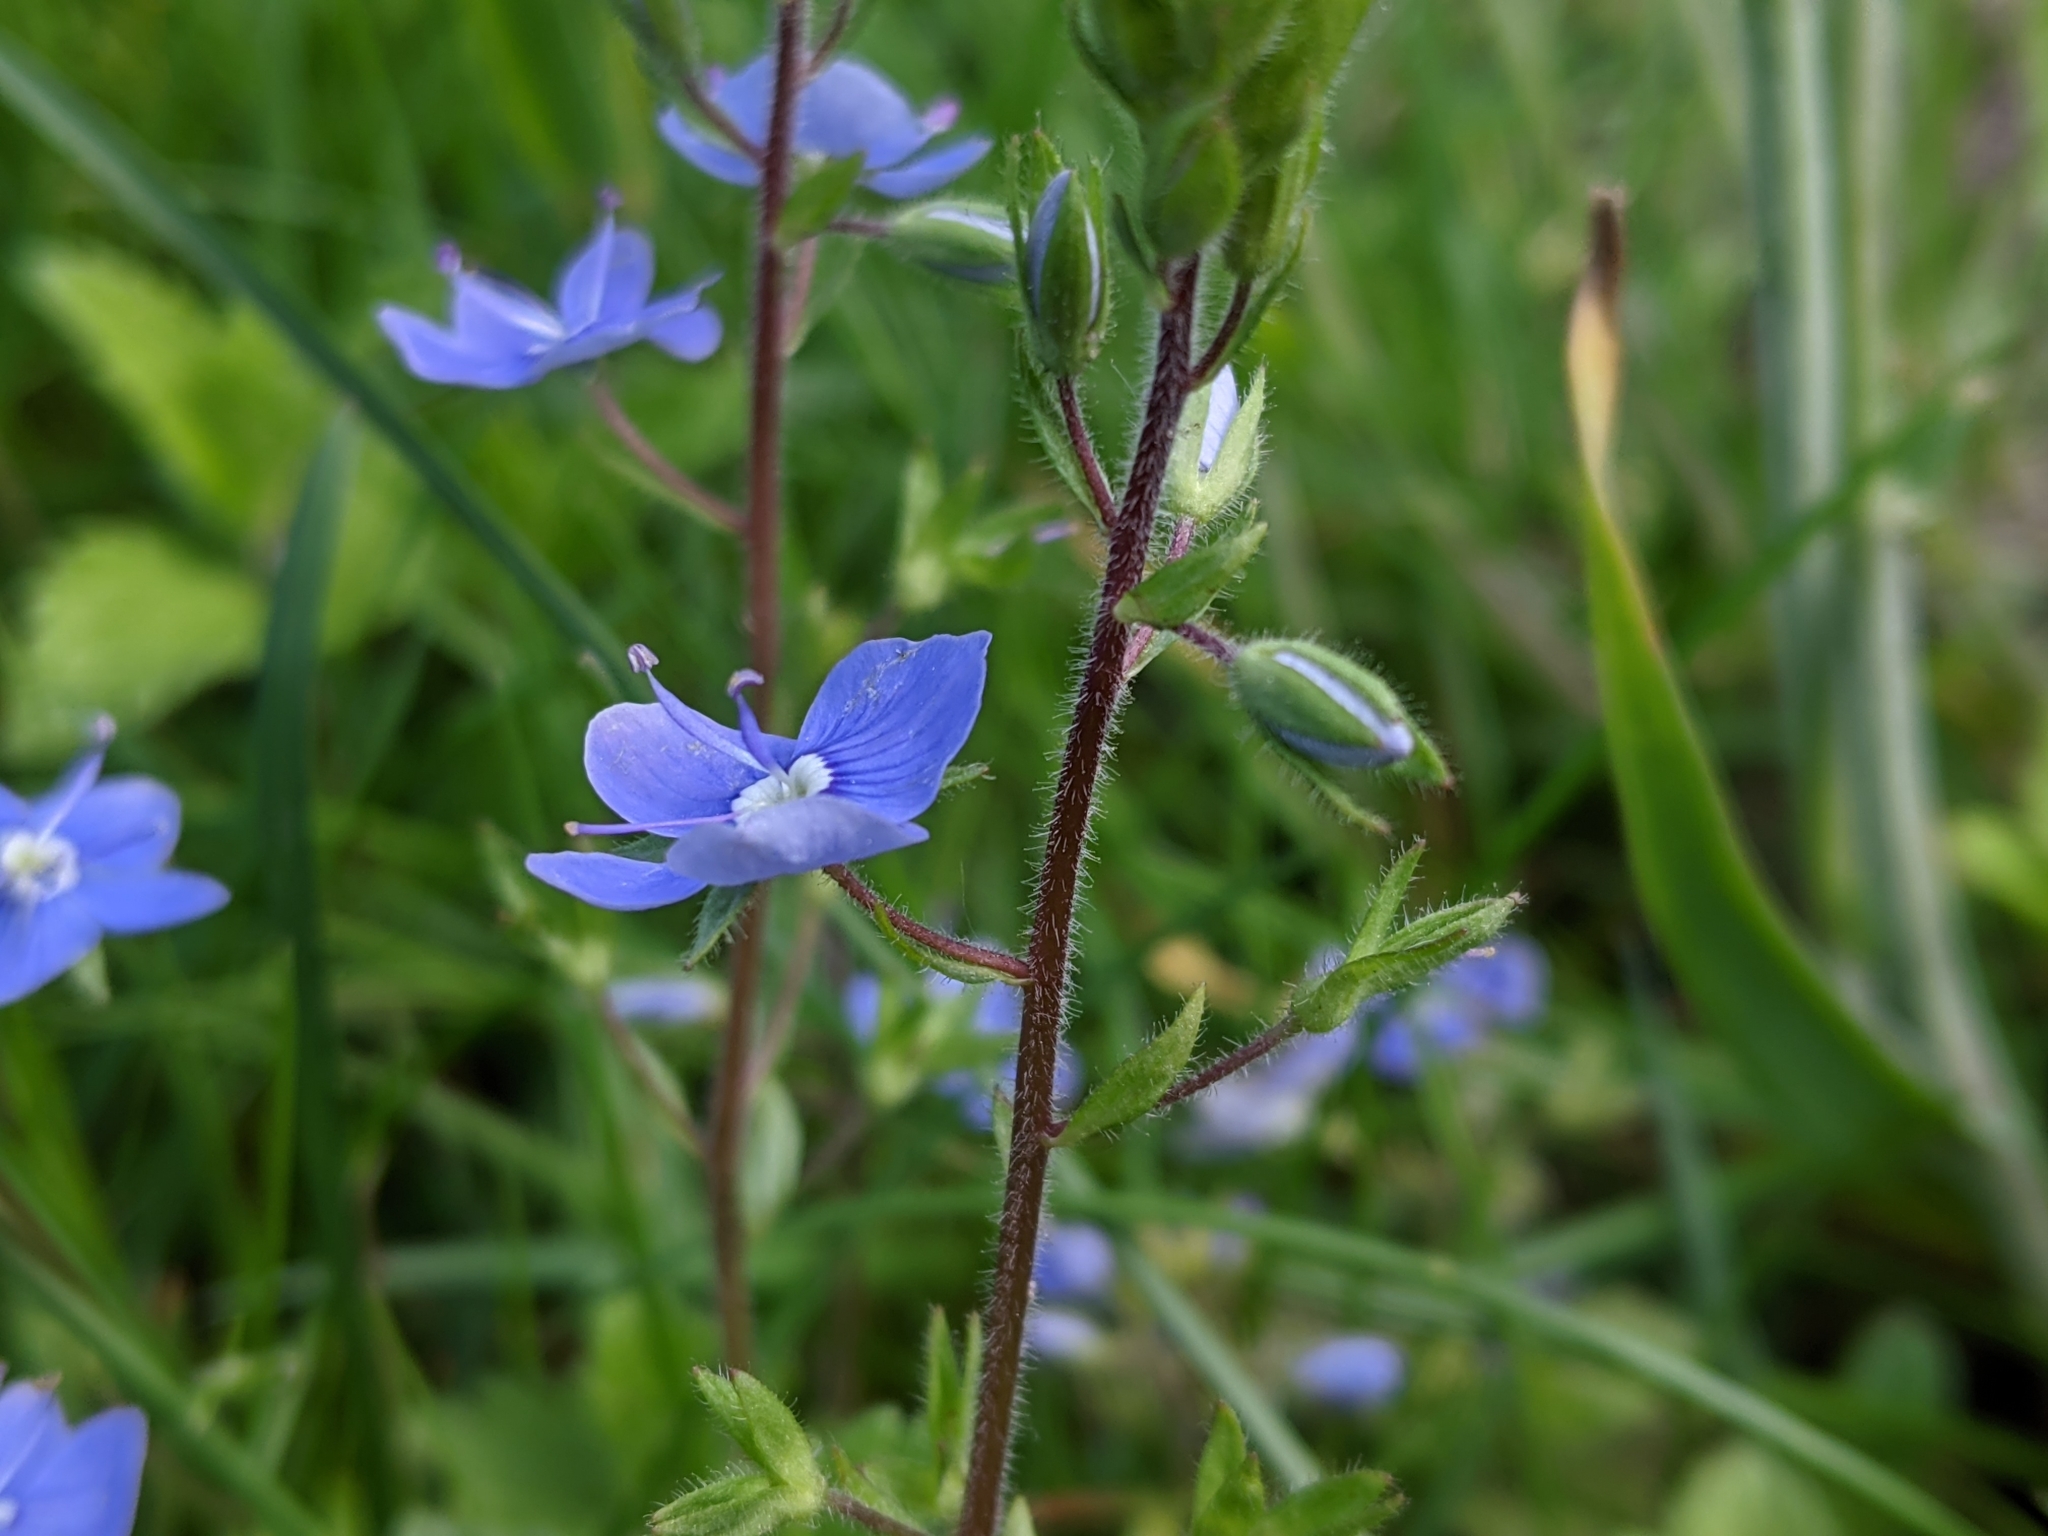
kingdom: Plantae
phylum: Tracheophyta
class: Magnoliopsida
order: Lamiales
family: Plantaginaceae
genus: Veronica
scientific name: Veronica chamaedrys
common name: Germander speedwell
